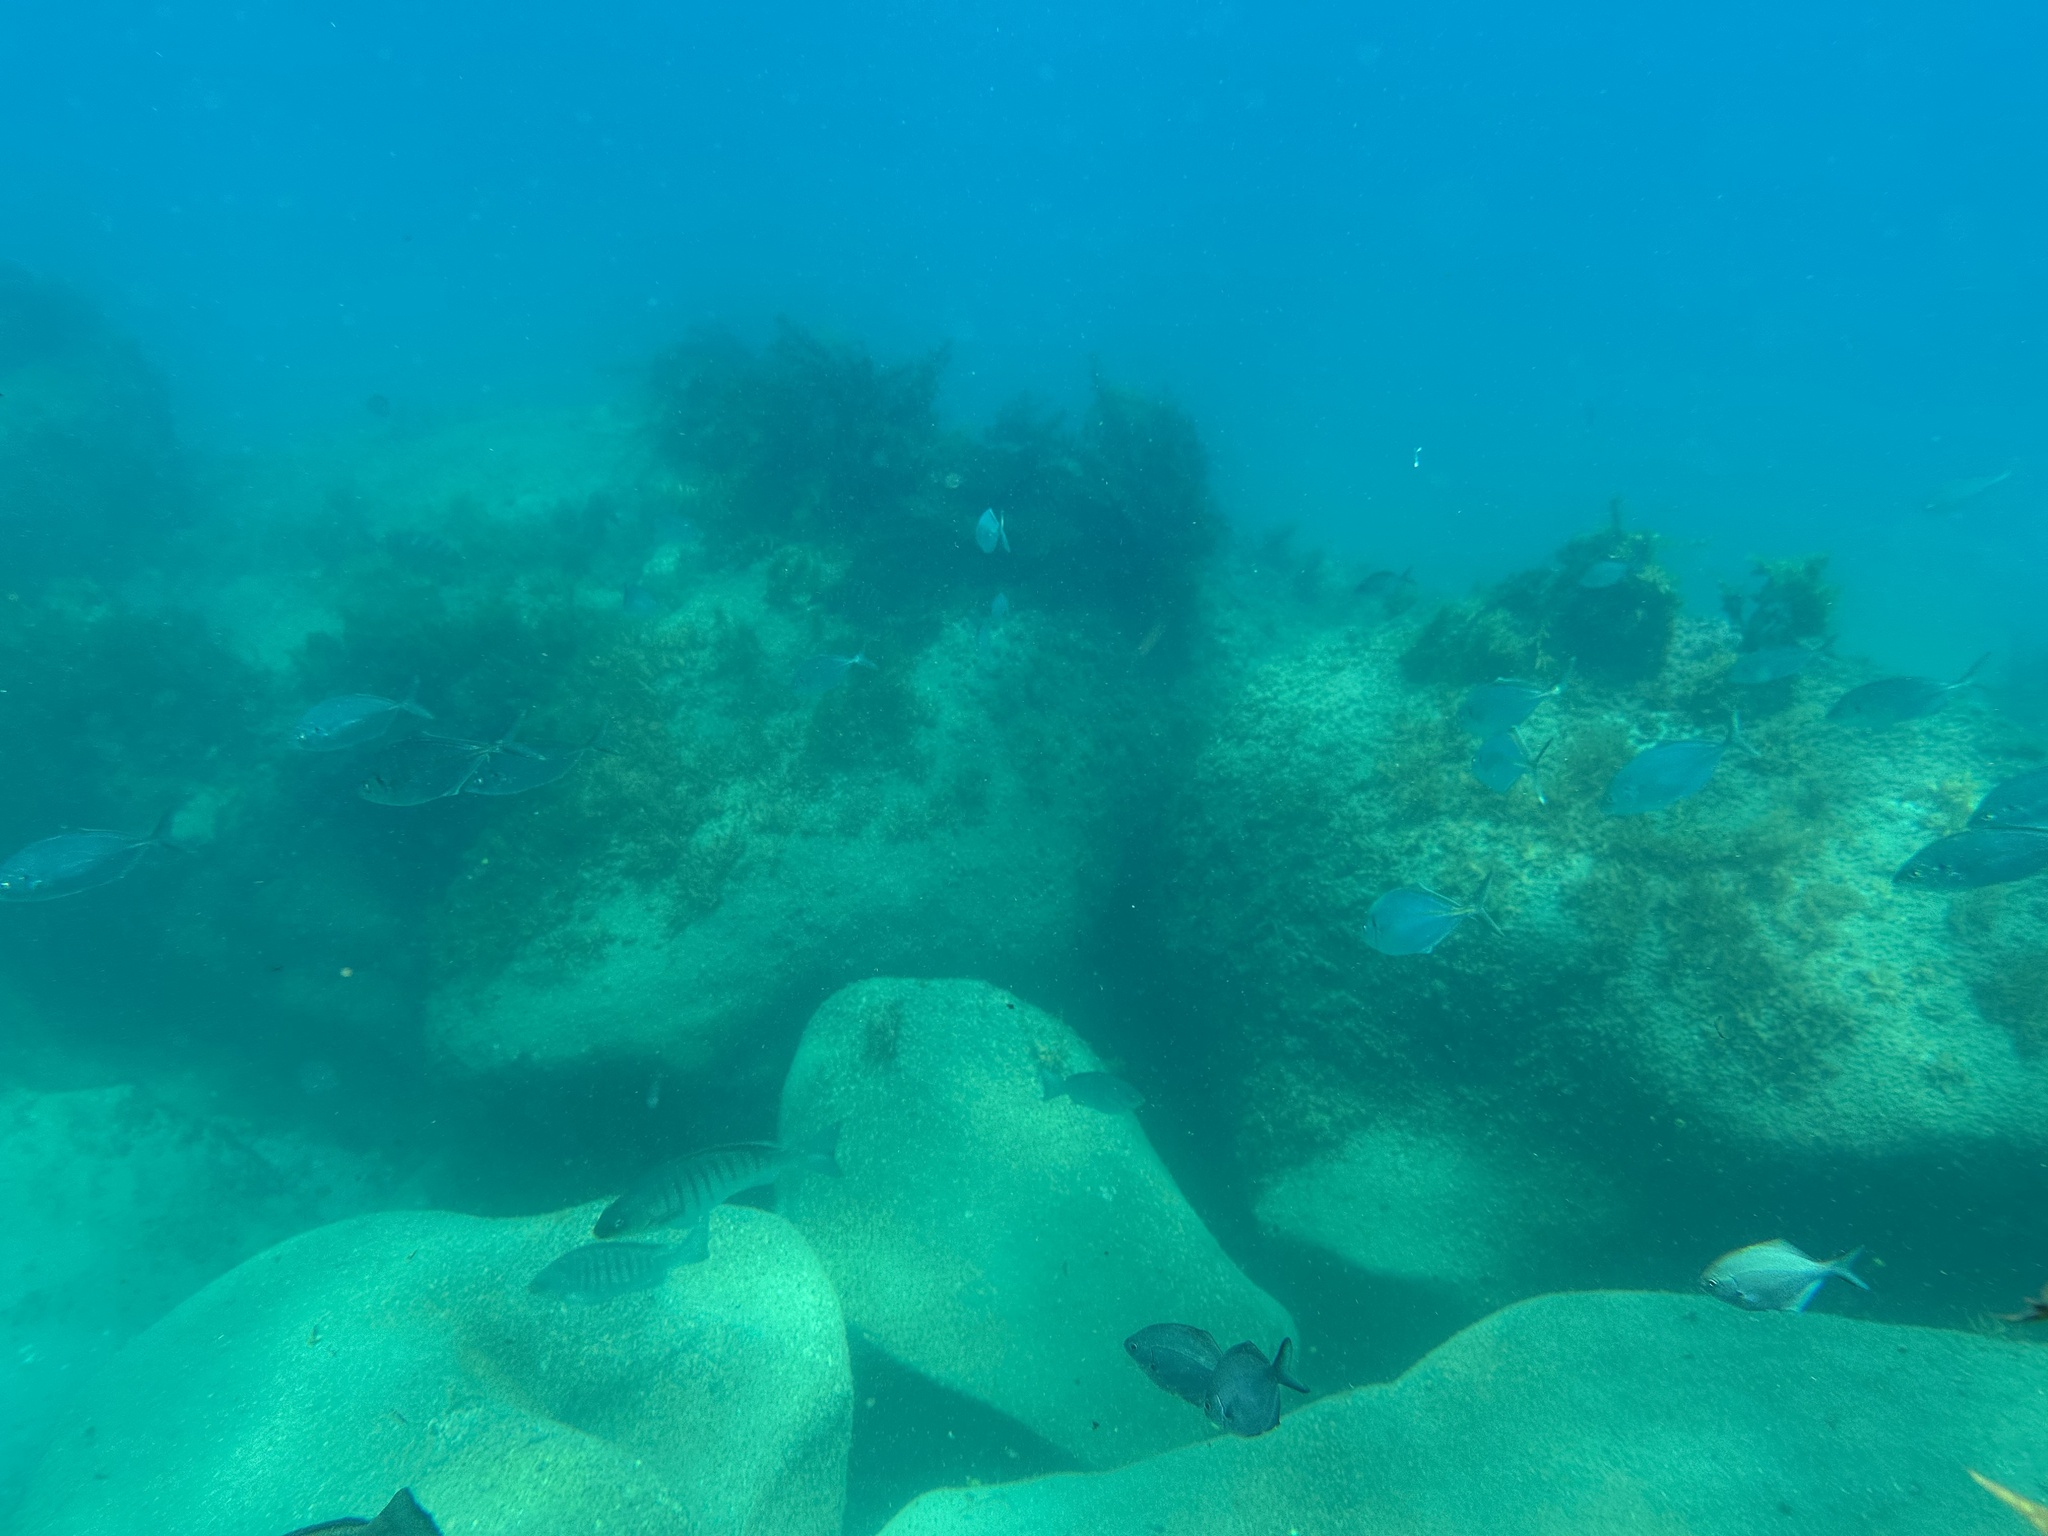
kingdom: Animalia
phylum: Chordata
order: Perciformes
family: Carangidae
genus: Pseudocaranx
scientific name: Pseudocaranx dentex
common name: White trevally
